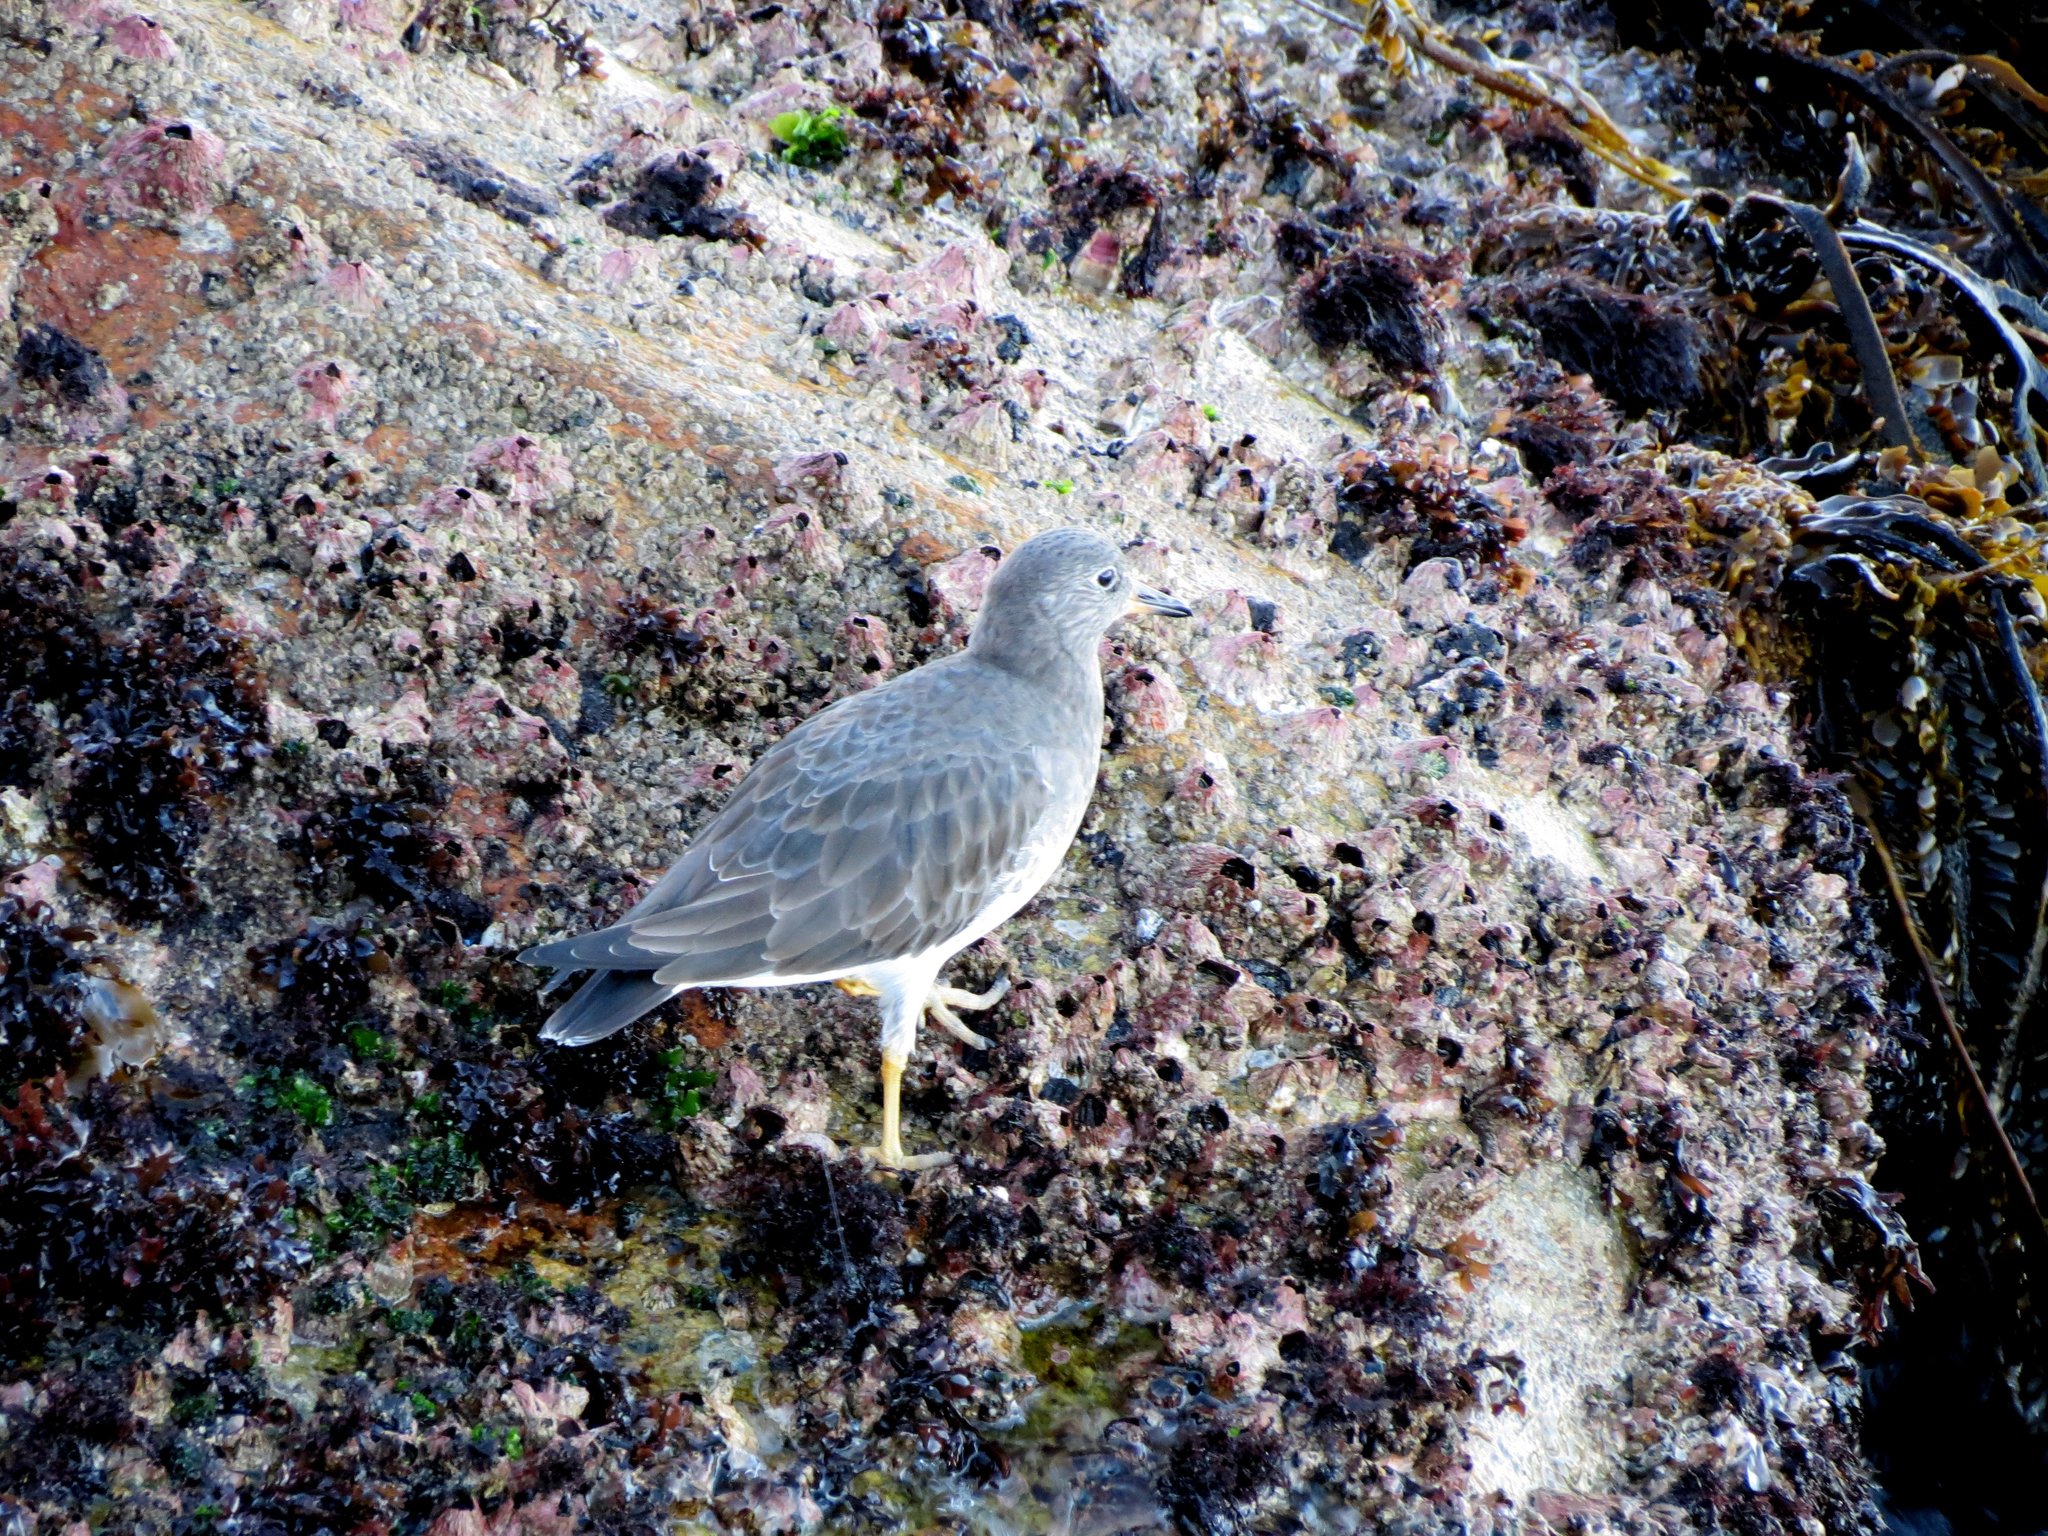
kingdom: Animalia
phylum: Chordata
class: Aves
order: Charadriiformes
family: Scolopacidae
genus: Calidris
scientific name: Calidris virgata
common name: Surfbird
